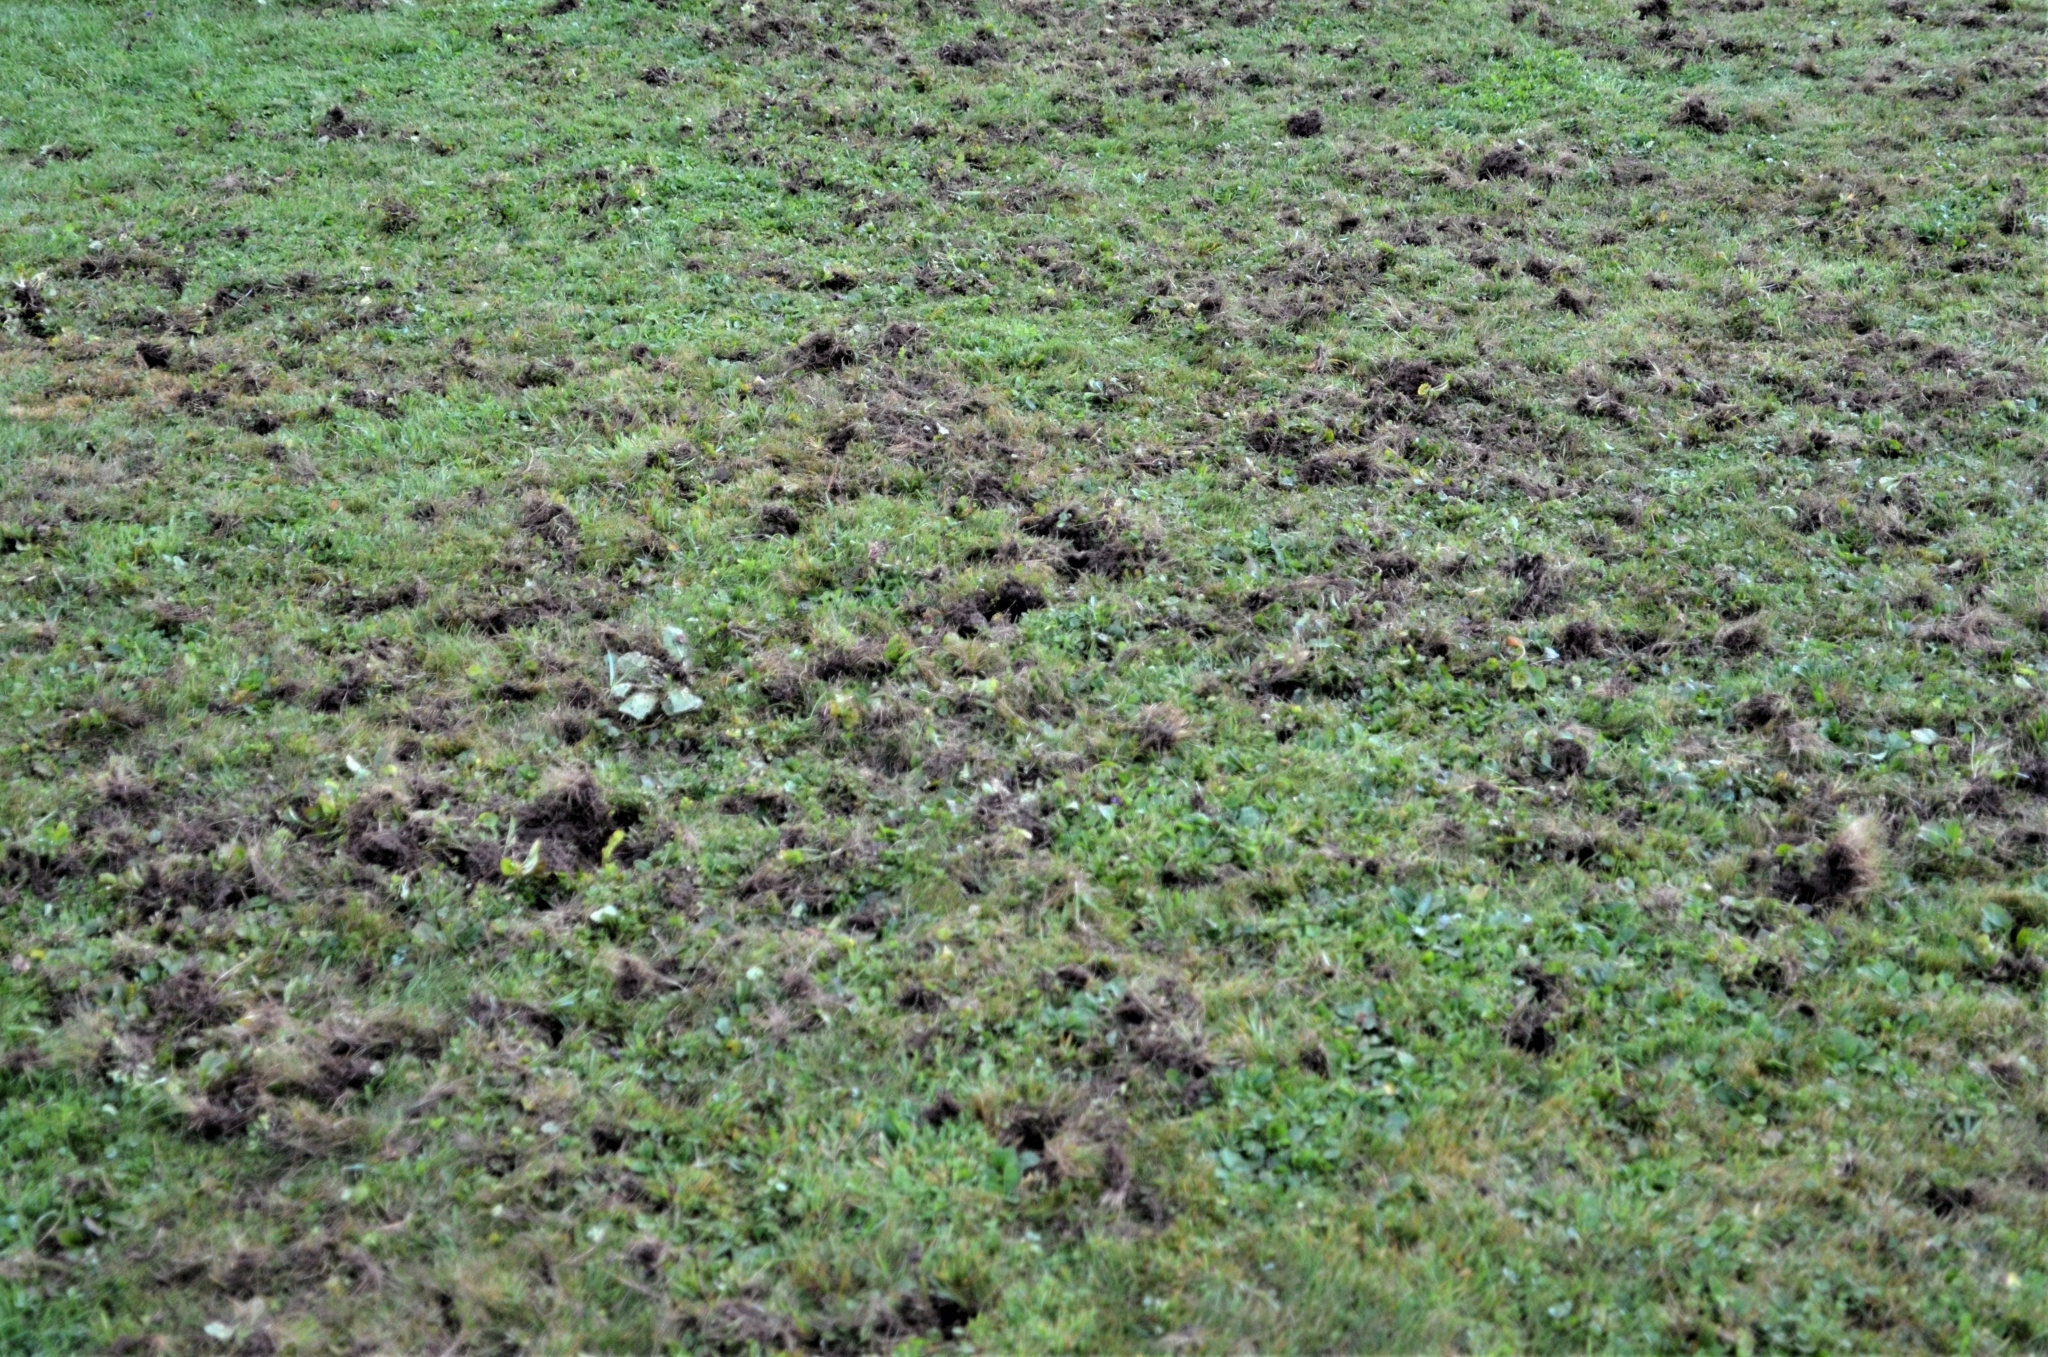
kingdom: Animalia
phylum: Chordata
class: Mammalia
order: Carnivora
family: Mustelidae
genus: Meles
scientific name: Meles meles
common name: Eurasian badger
